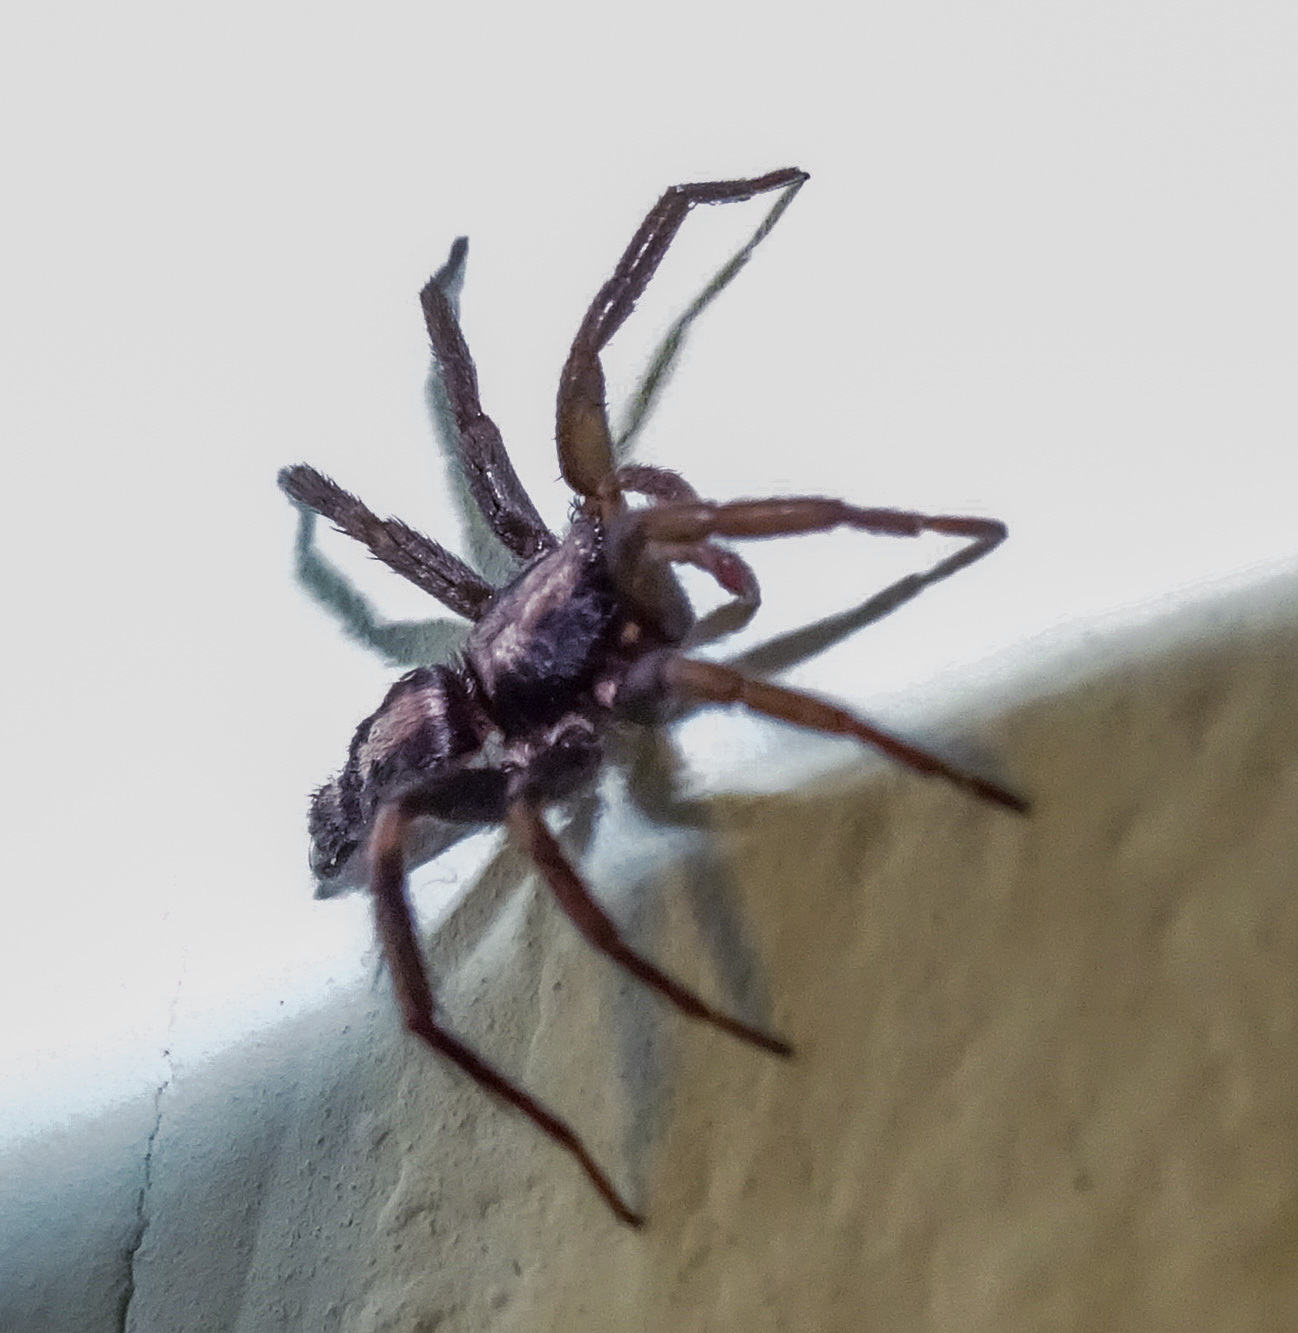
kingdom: Animalia
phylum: Arthropoda
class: Arachnida
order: Araneae
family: Gnaphosidae
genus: Herpyllus
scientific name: Herpyllus ecclesiasticus
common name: Eastern parson spider
